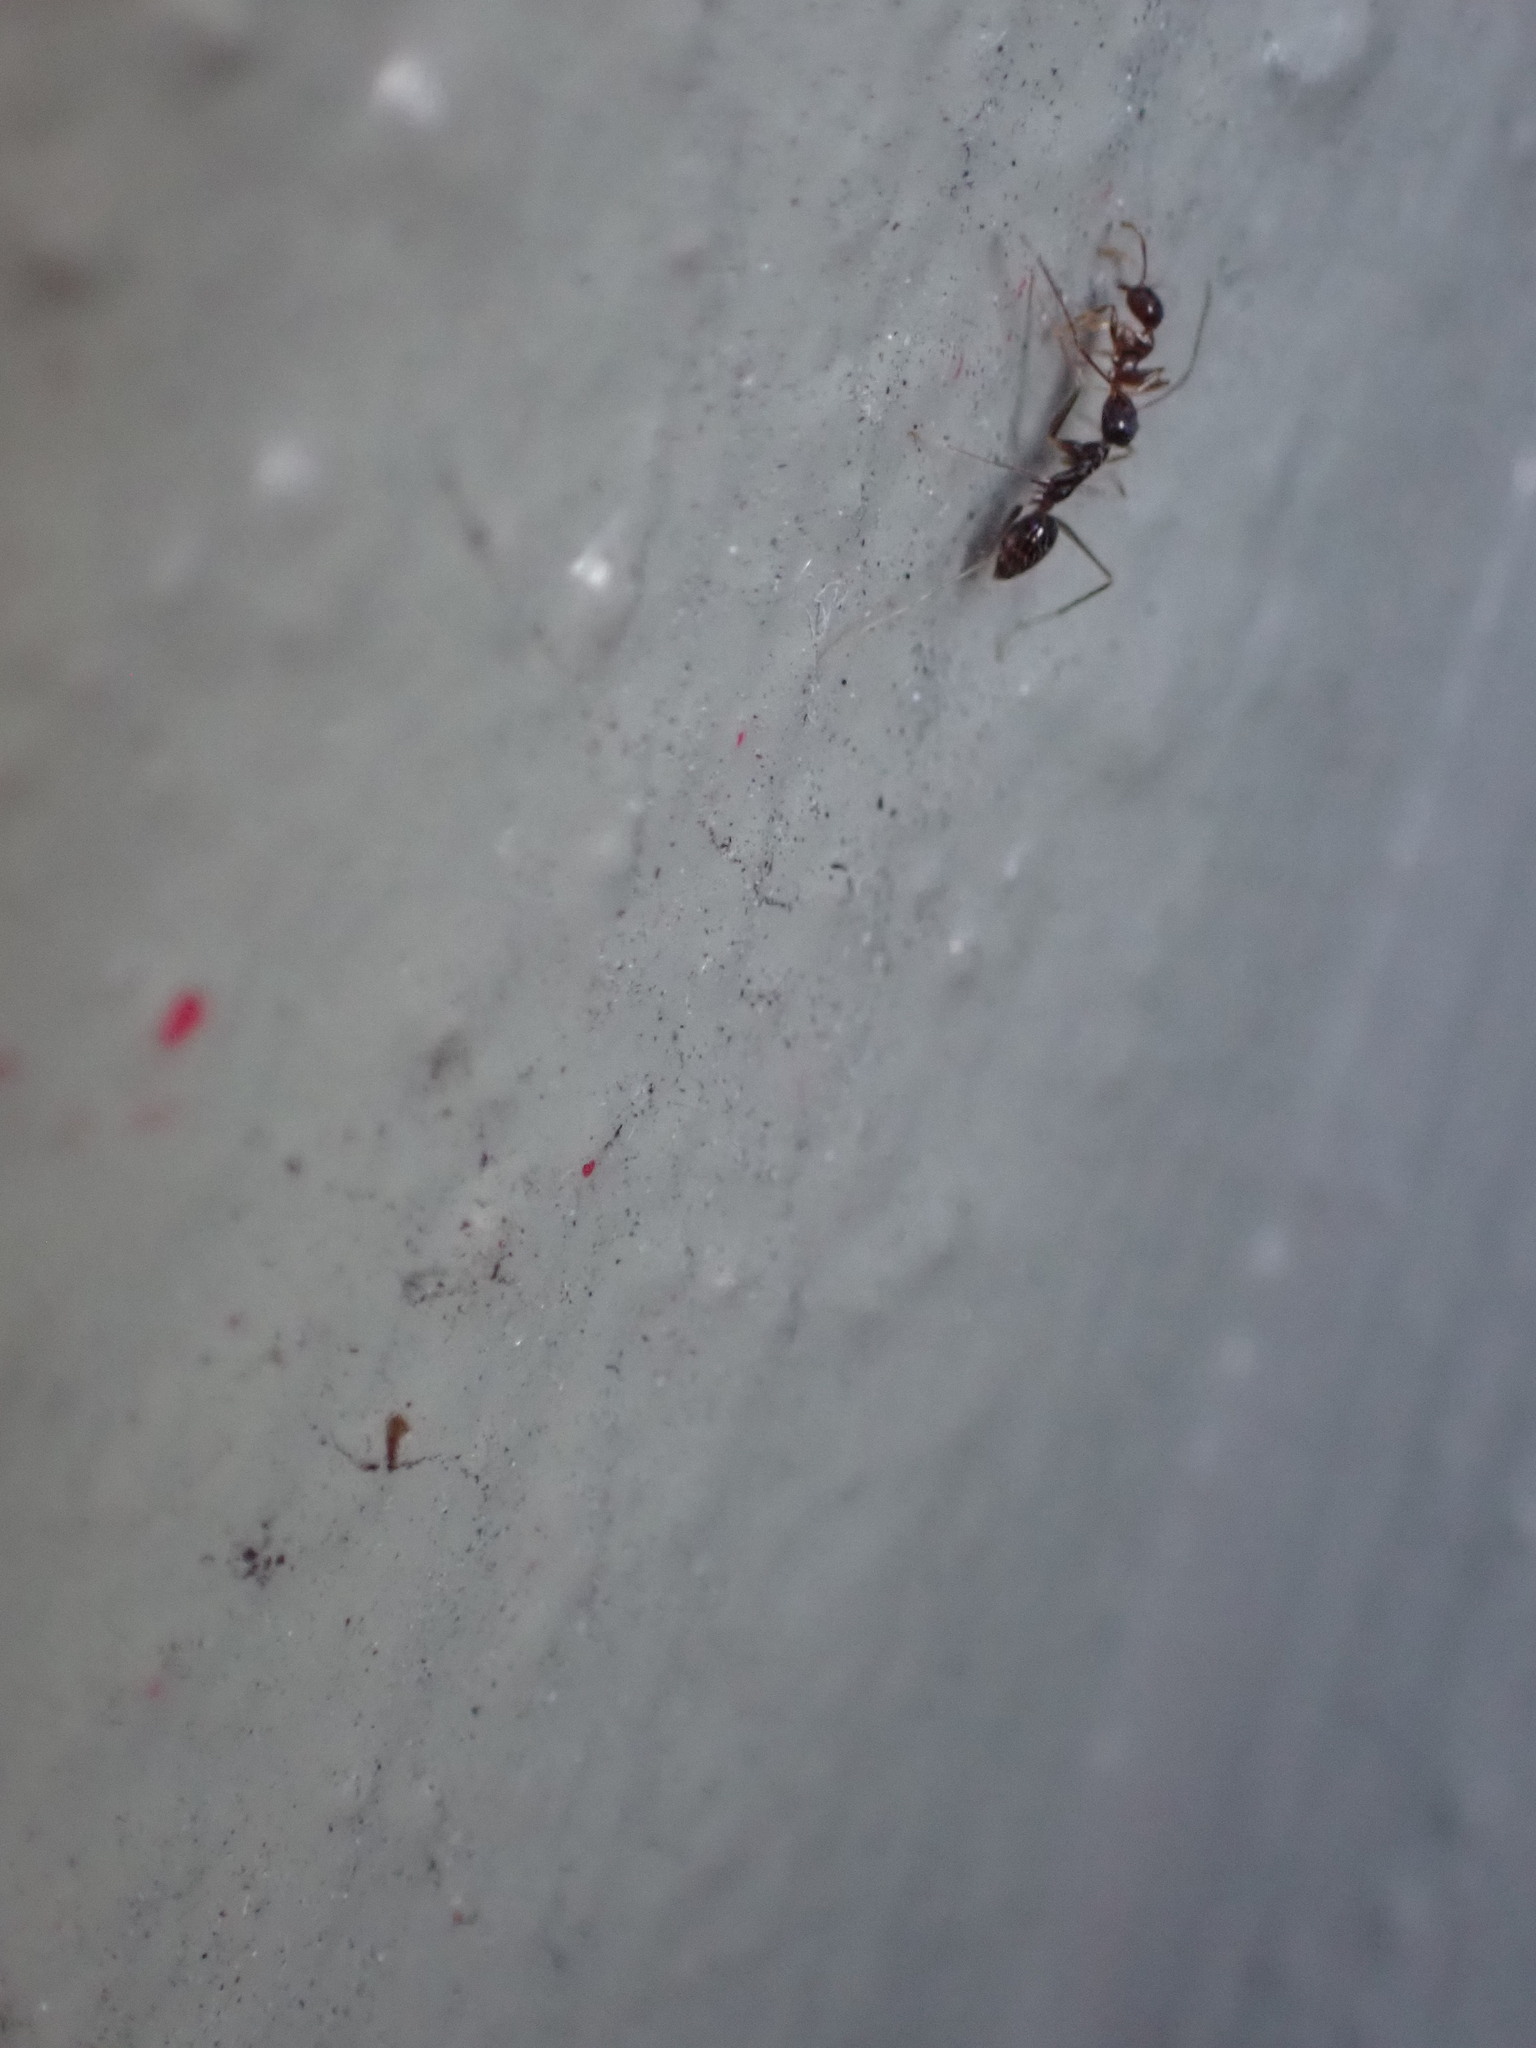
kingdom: Animalia
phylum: Arthropoda
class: Insecta
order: Hymenoptera
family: Formicidae
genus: Paratrechina
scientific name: Paratrechina longicornis
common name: Longhorned crazy ant
